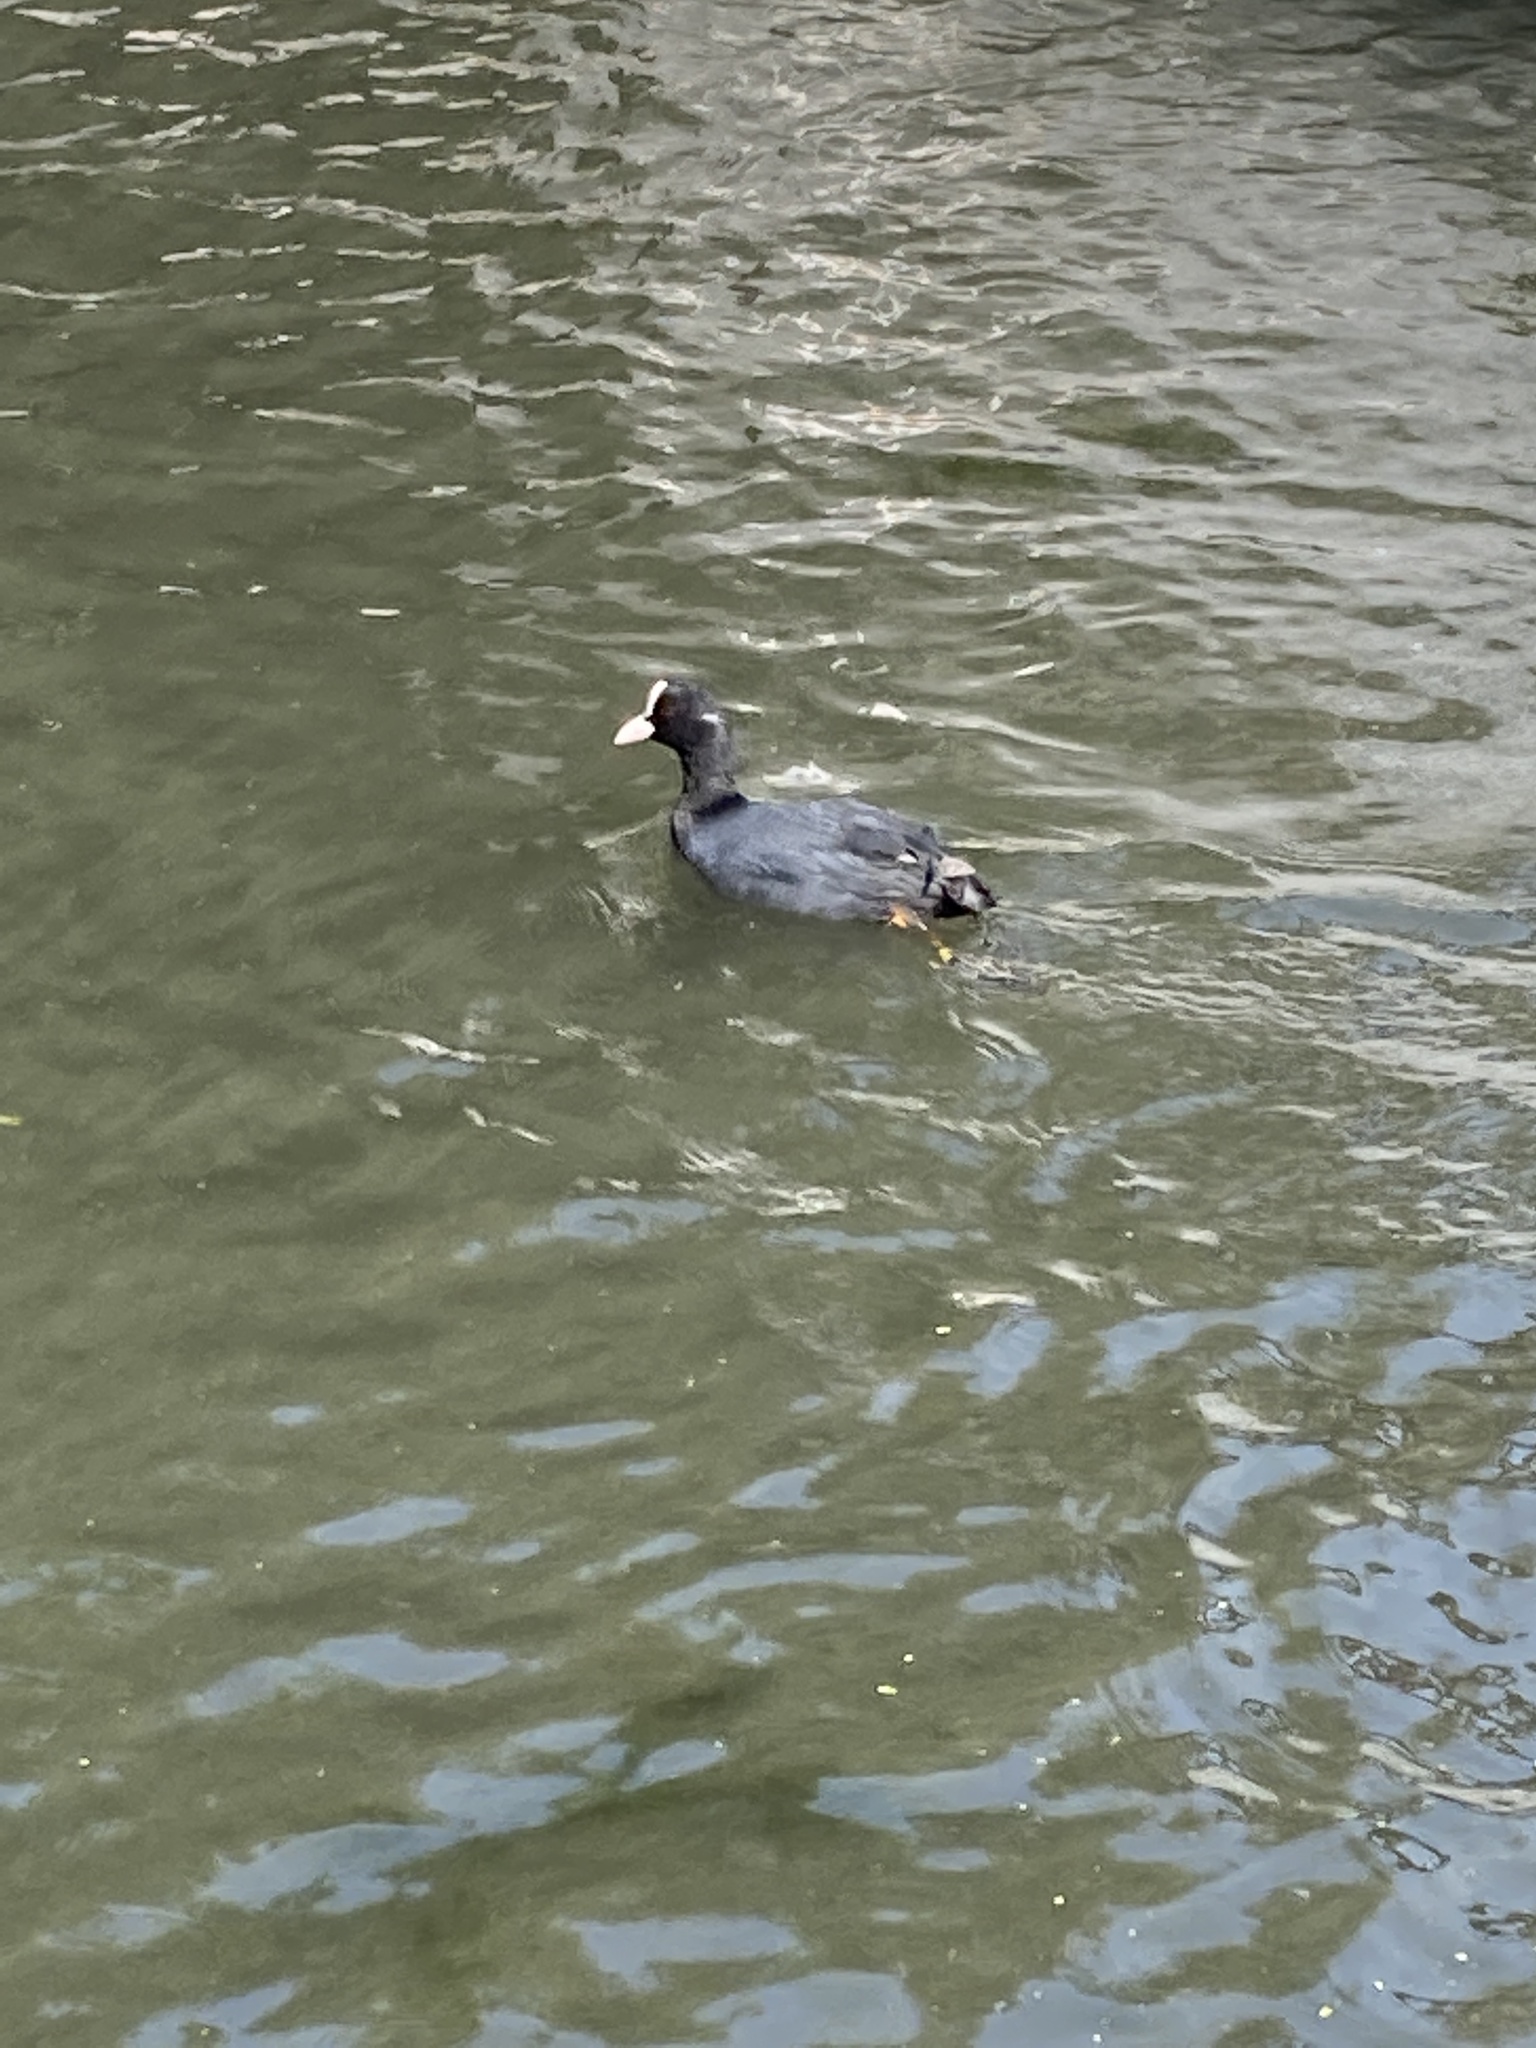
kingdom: Animalia
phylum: Chordata
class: Aves
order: Gruiformes
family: Rallidae
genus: Fulica
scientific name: Fulica atra
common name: Eurasian coot
